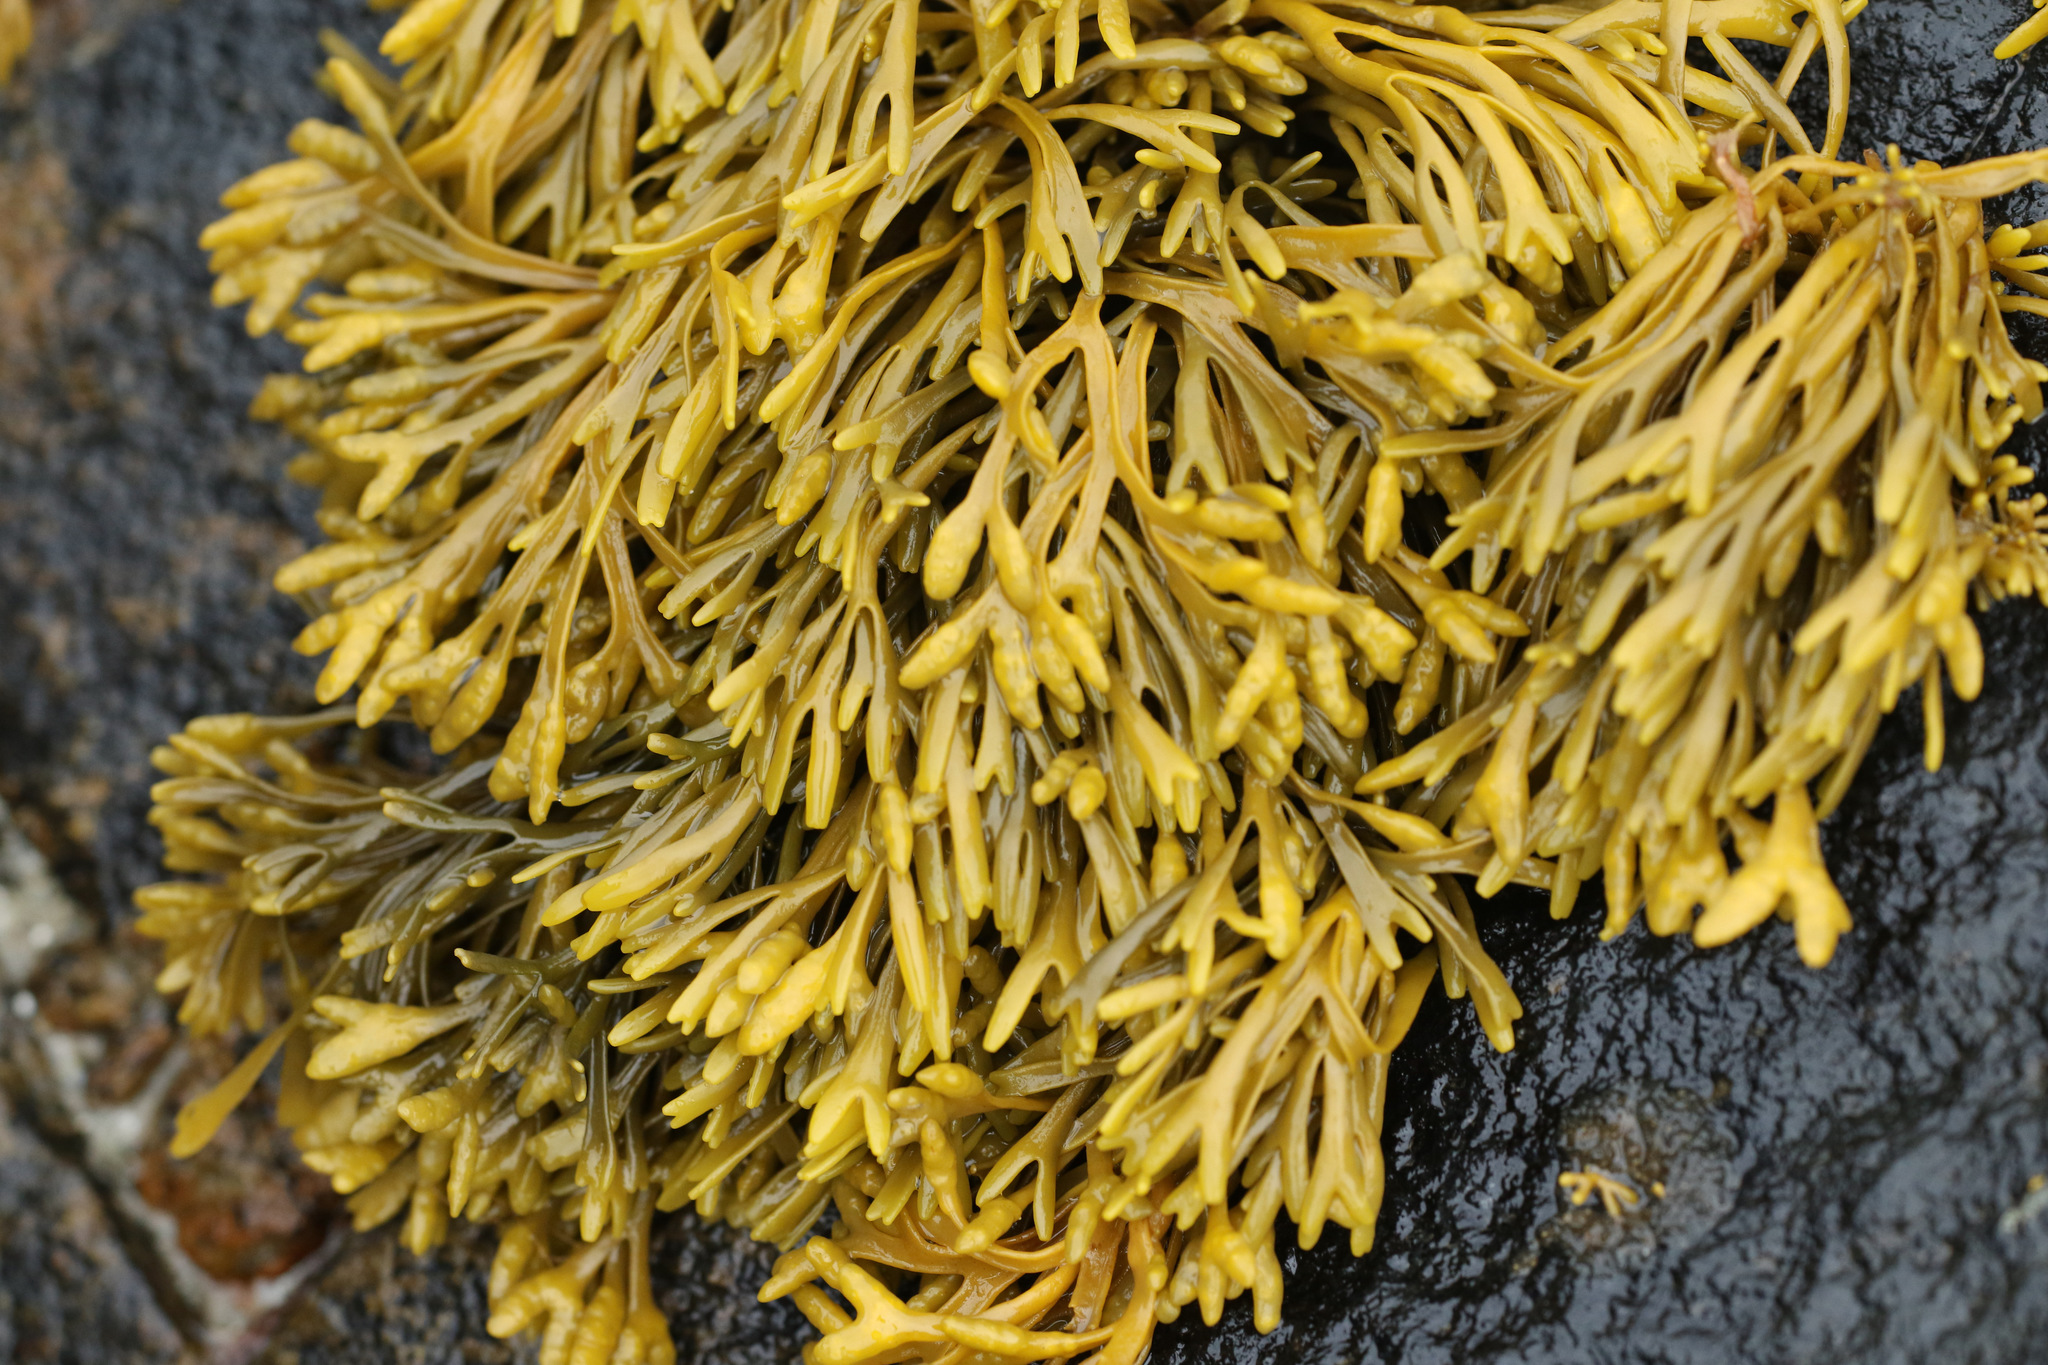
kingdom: Chromista
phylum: Ochrophyta
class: Phaeophyceae
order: Fucales
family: Fucaceae
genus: Pelvetia
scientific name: Pelvetia canaliculata
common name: Channelled wrack
